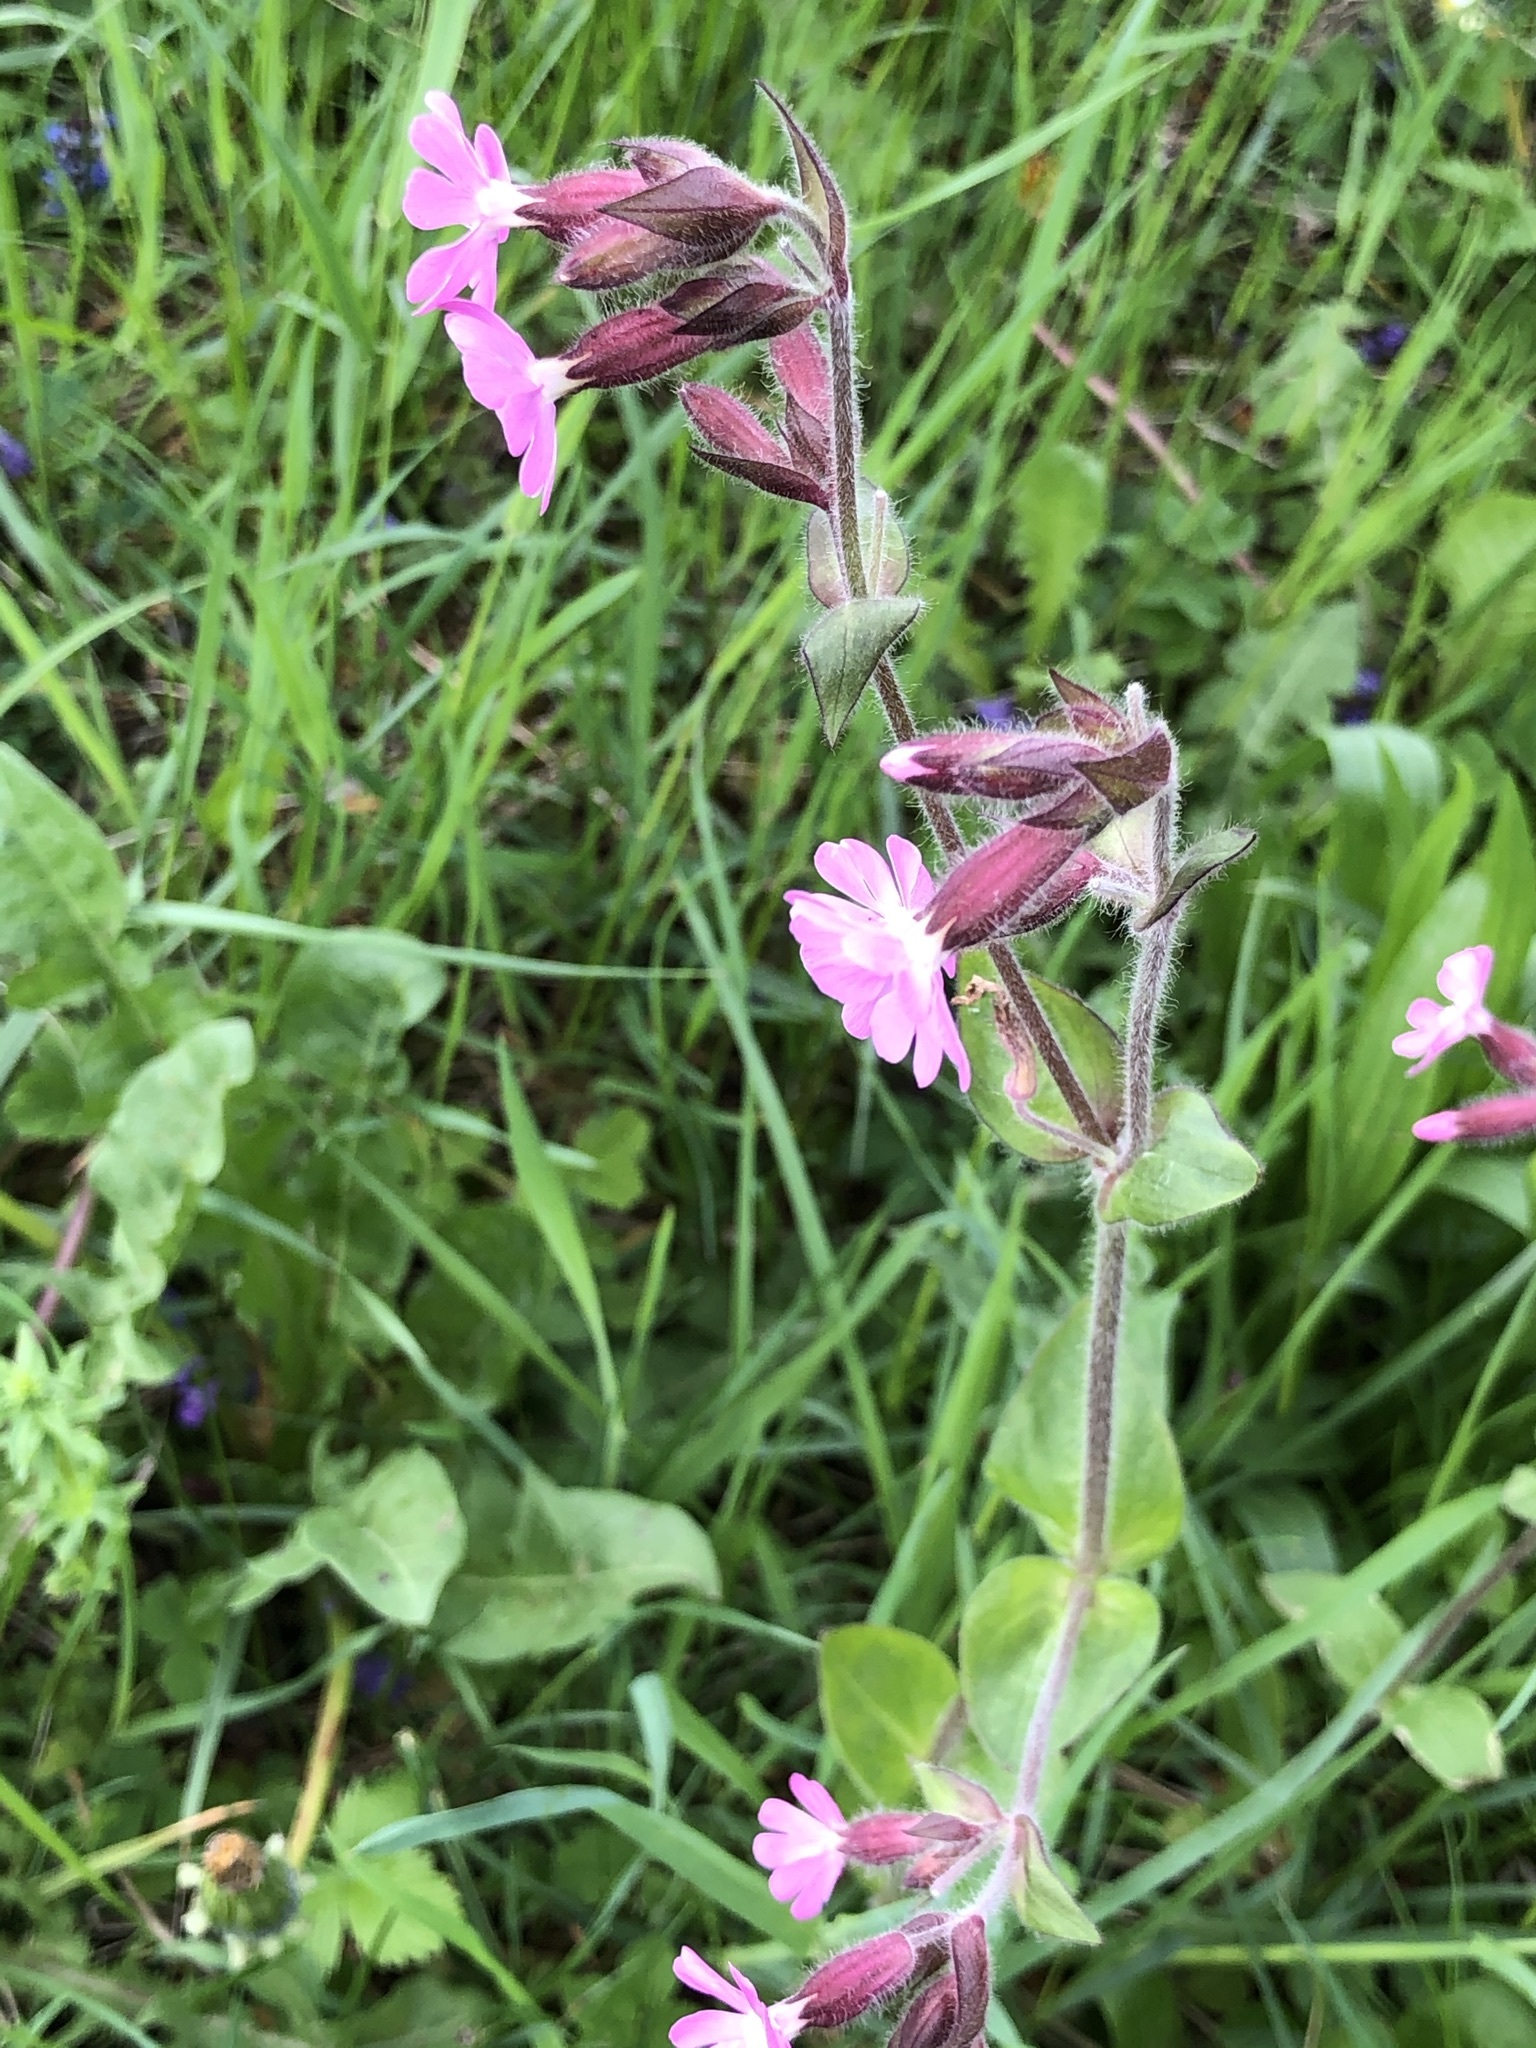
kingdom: Plantae
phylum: Tracheophyta
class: Magnoliopsida
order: Caryophyllales
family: Caryophyllaceae
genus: Silene
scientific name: Silene dioica
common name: Red campion
